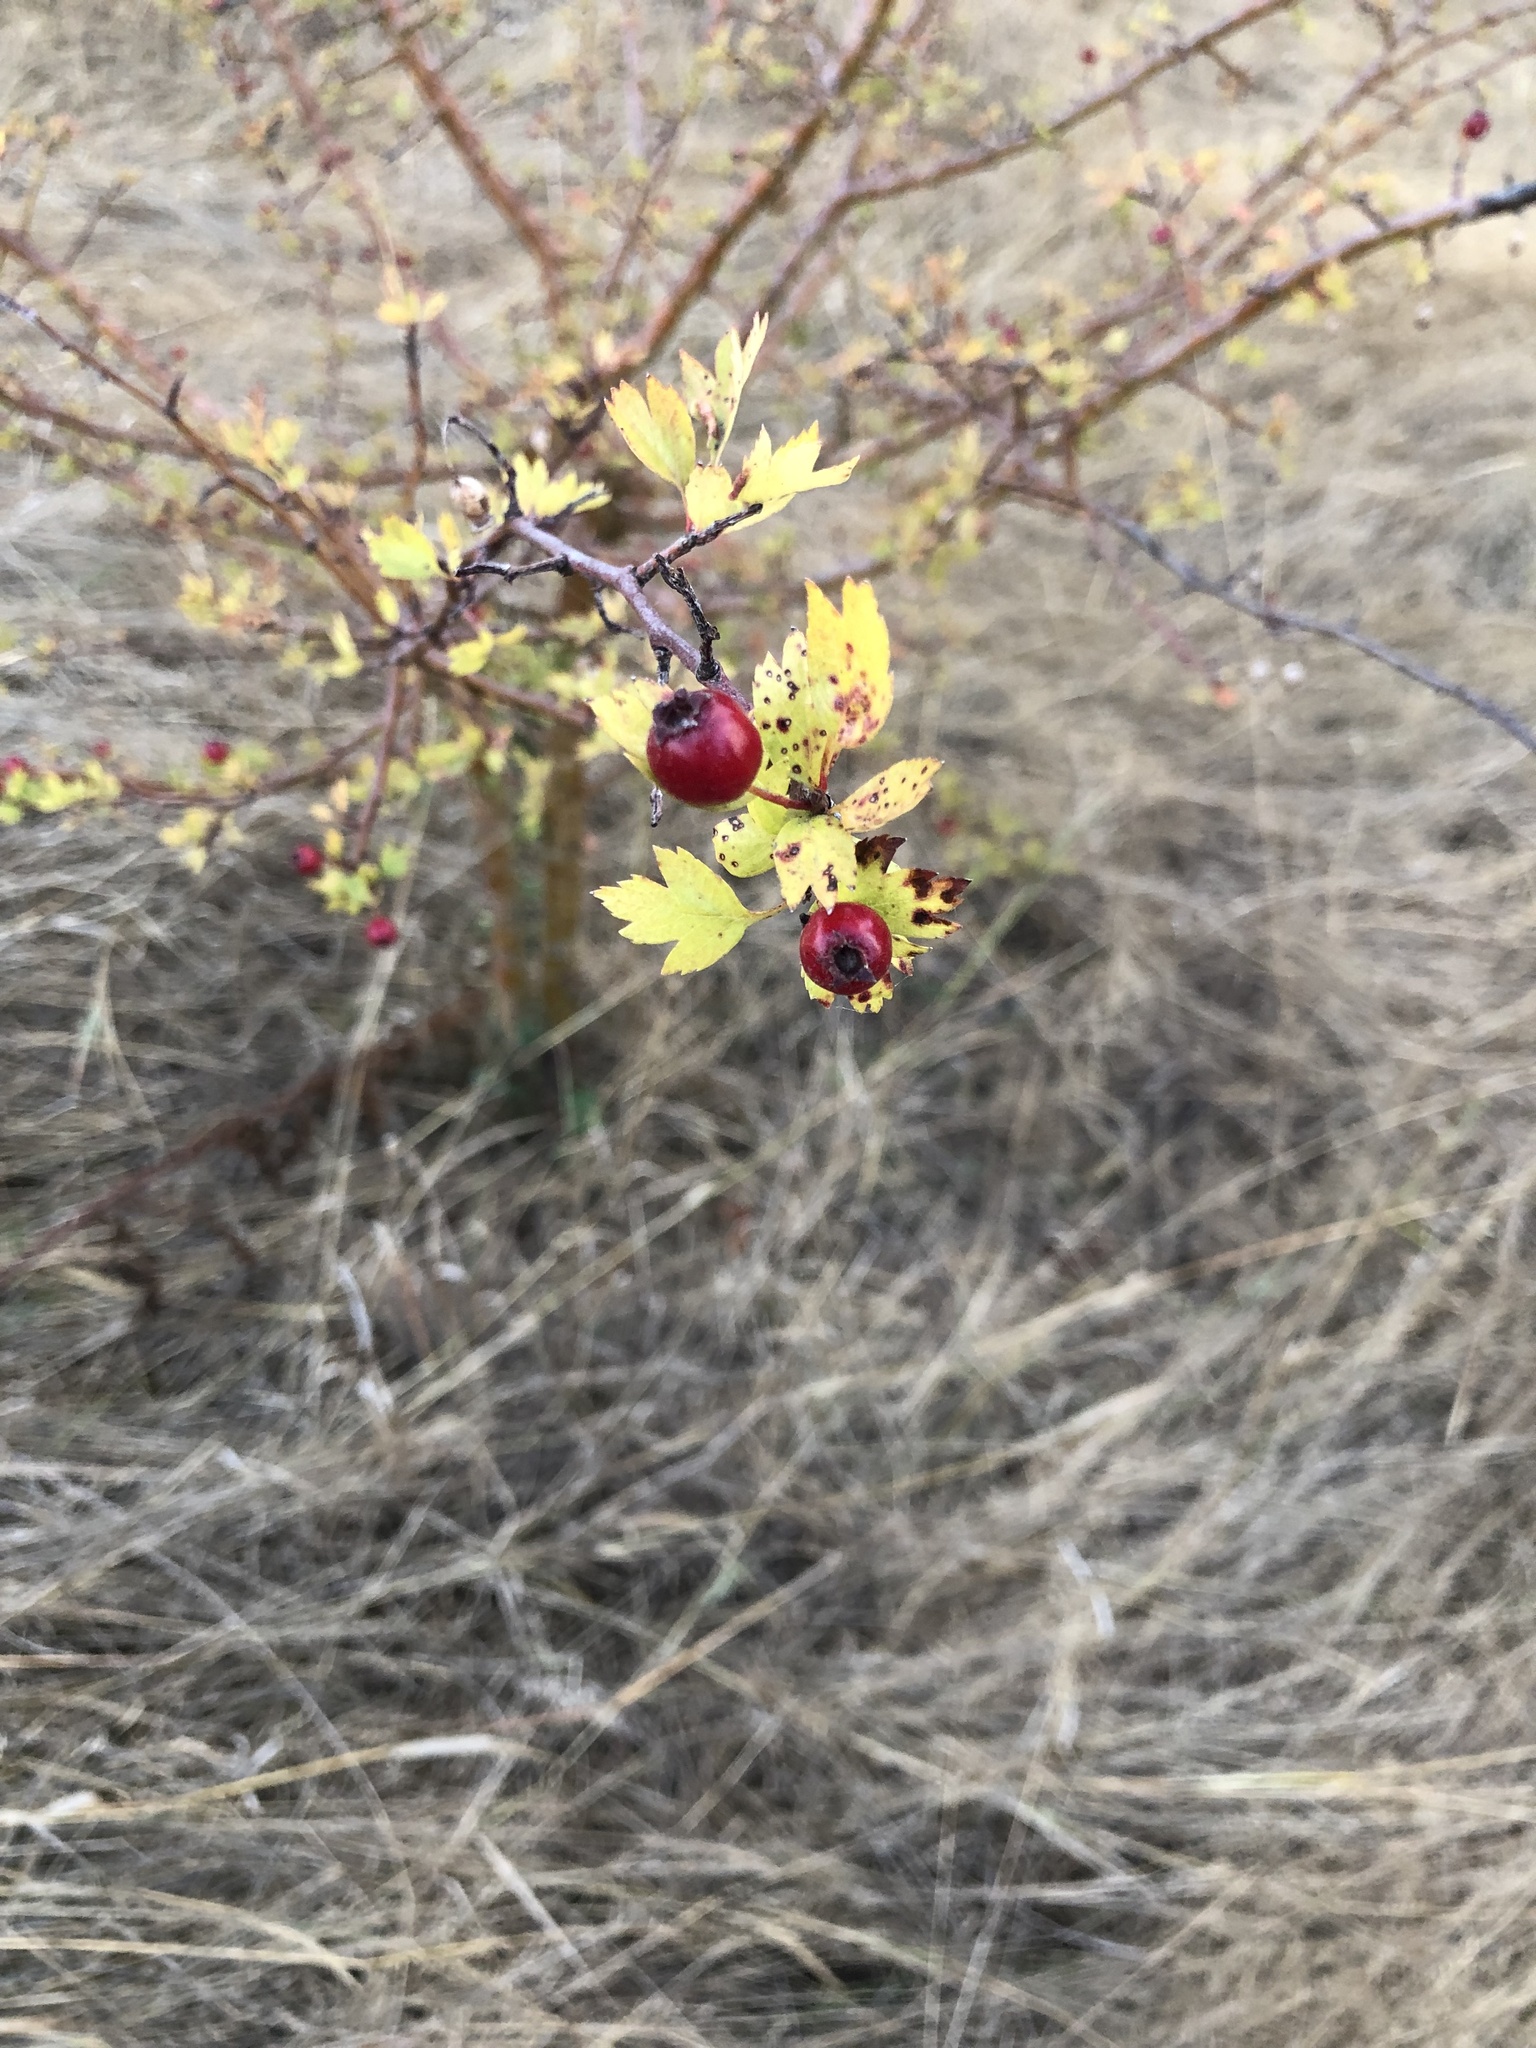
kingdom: Plantae
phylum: Tracheophyta
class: Magnoliopsida
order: Rosales
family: Rosaceae
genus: Crataegus
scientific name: Crataegus monogyna
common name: Hawthorn
